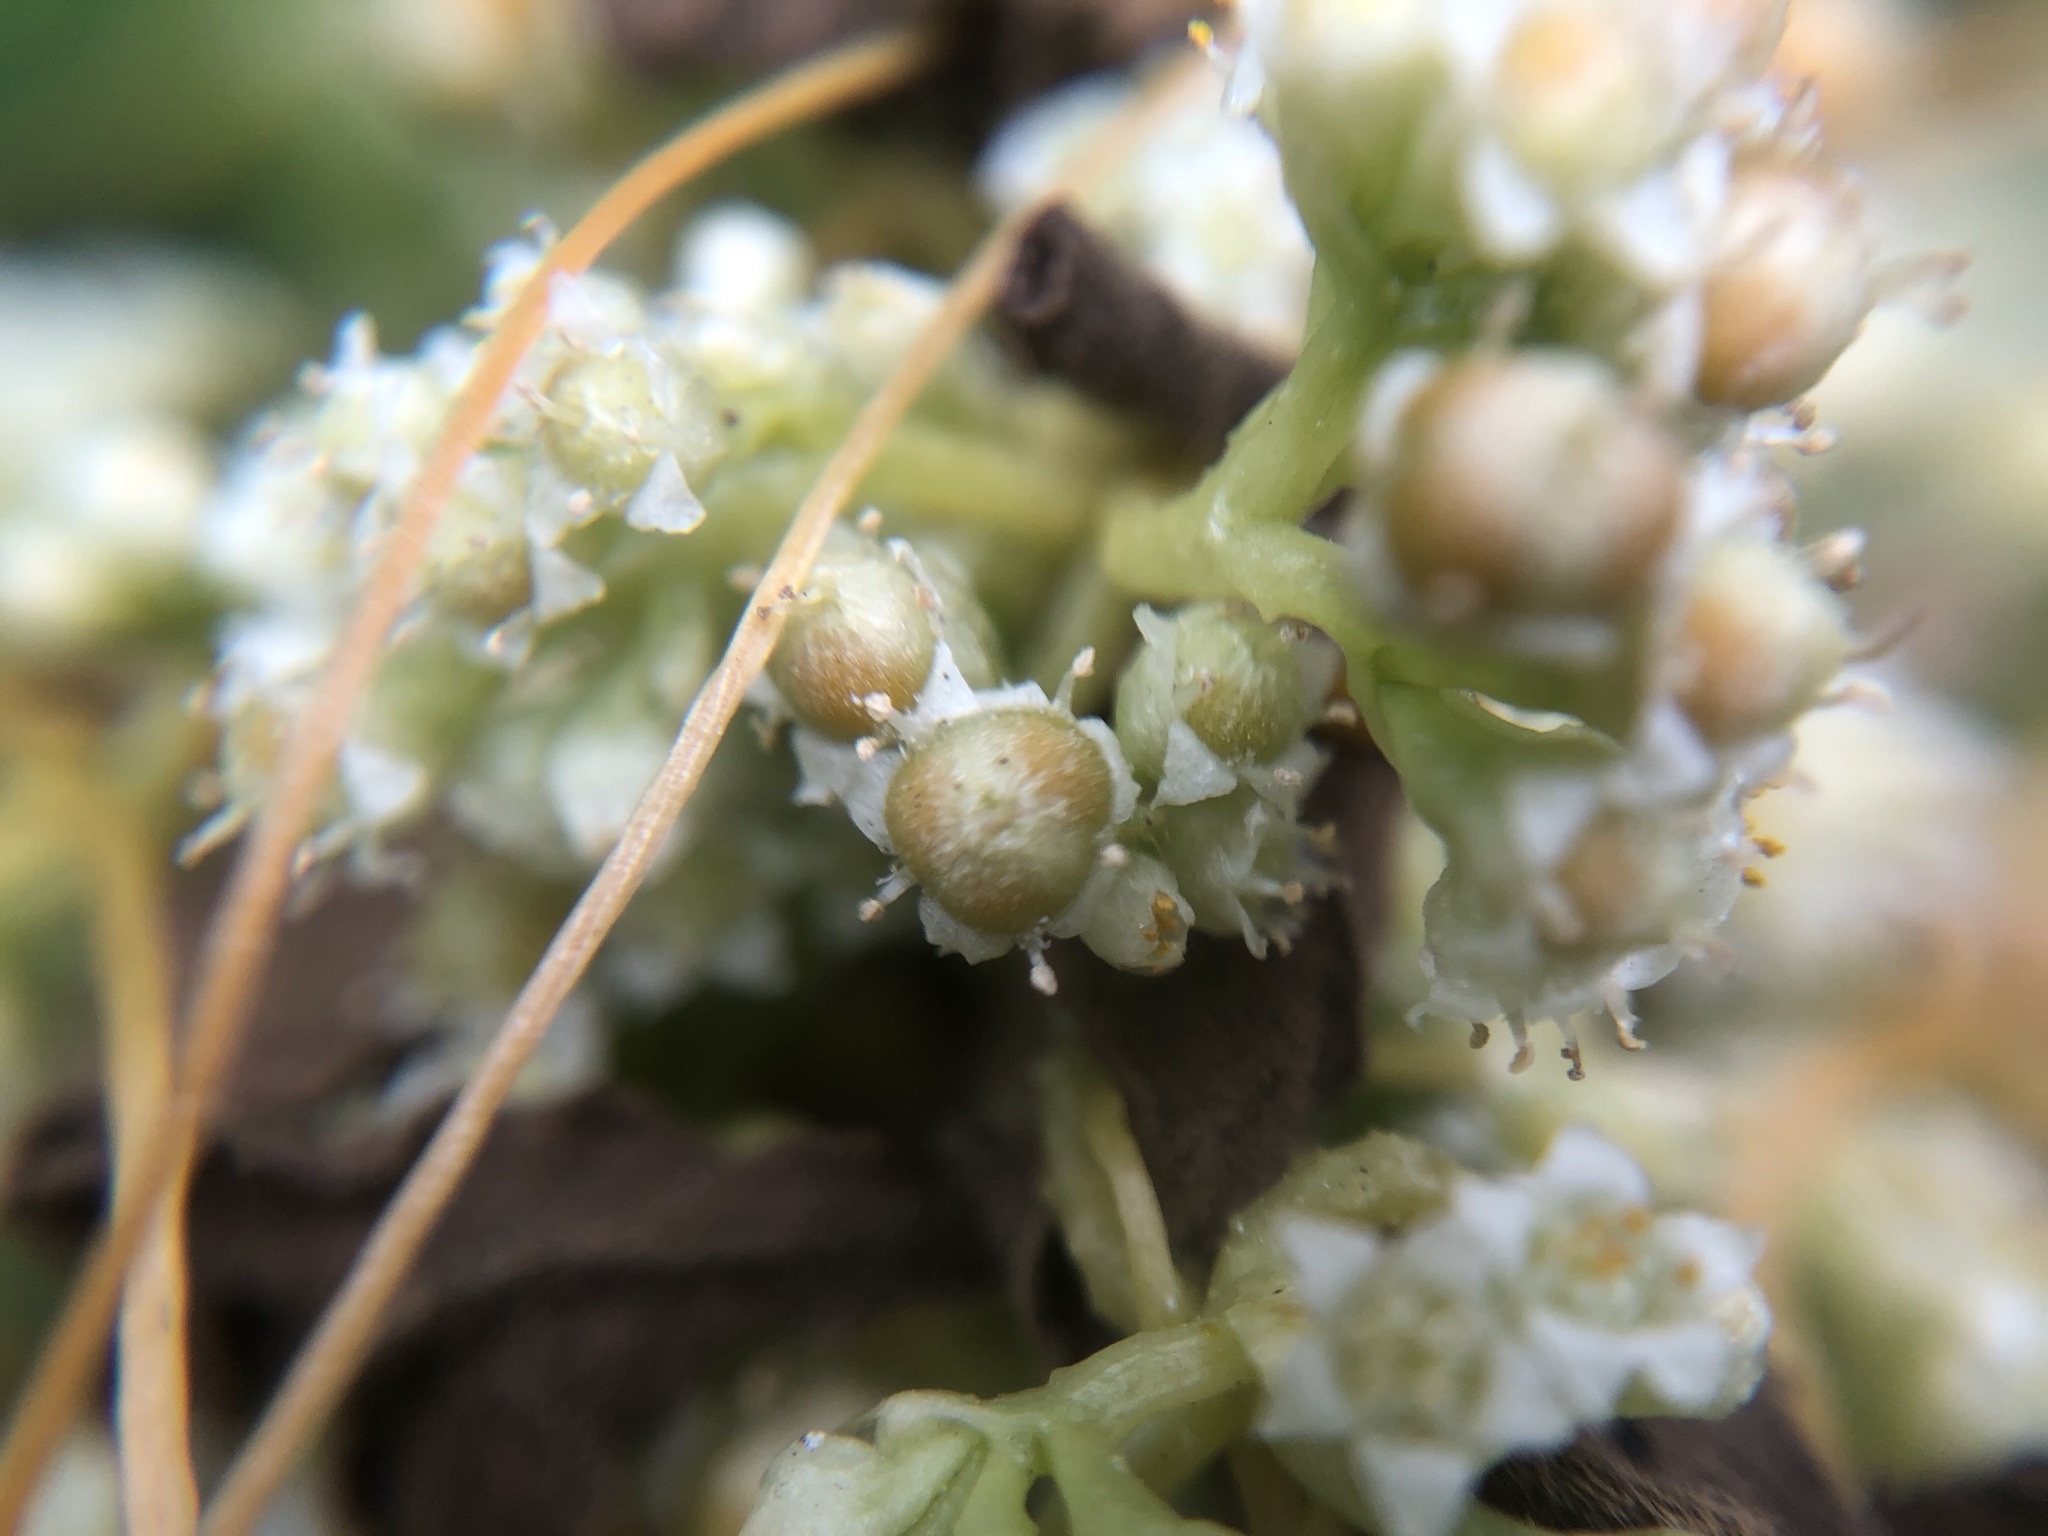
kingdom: Plantae
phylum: Tracheophyta
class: Magnoliopsida
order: Solanales
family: Convolvulaceae
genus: Cuscuta
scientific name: Cuscuta campestris
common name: Yellow dodder
